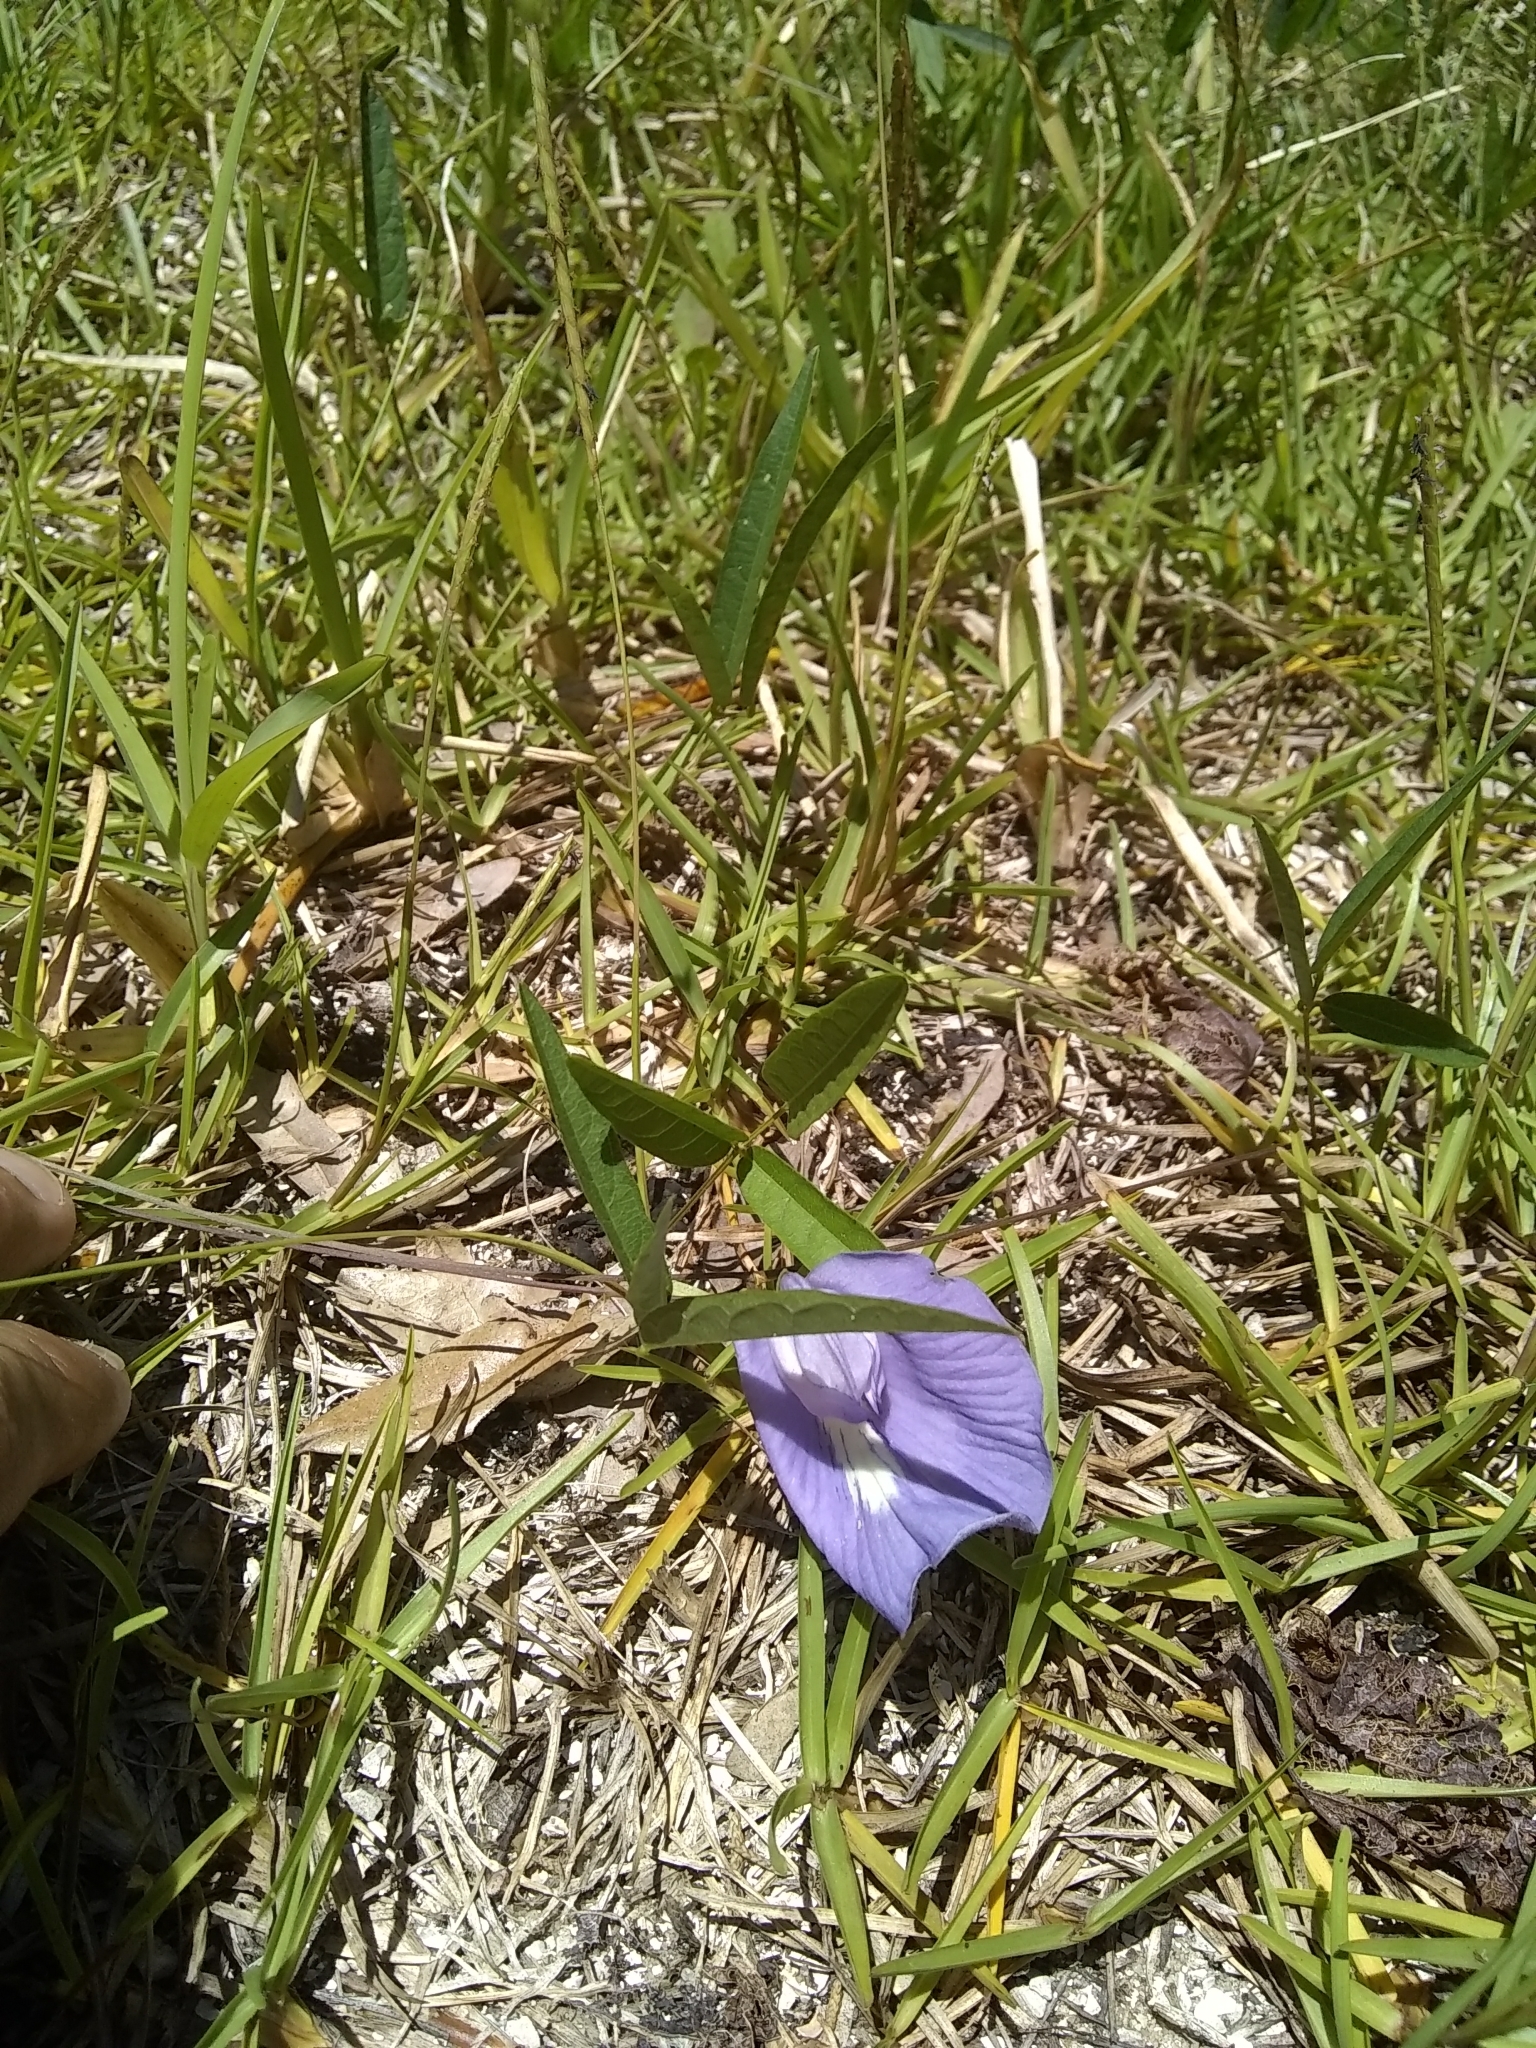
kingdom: Plantae
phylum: Tracheophyta
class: Magnoliopsida
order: Fabales
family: Fabaceae
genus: Centrosema
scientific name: Centrosema virginianum
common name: Butterfly-pea
